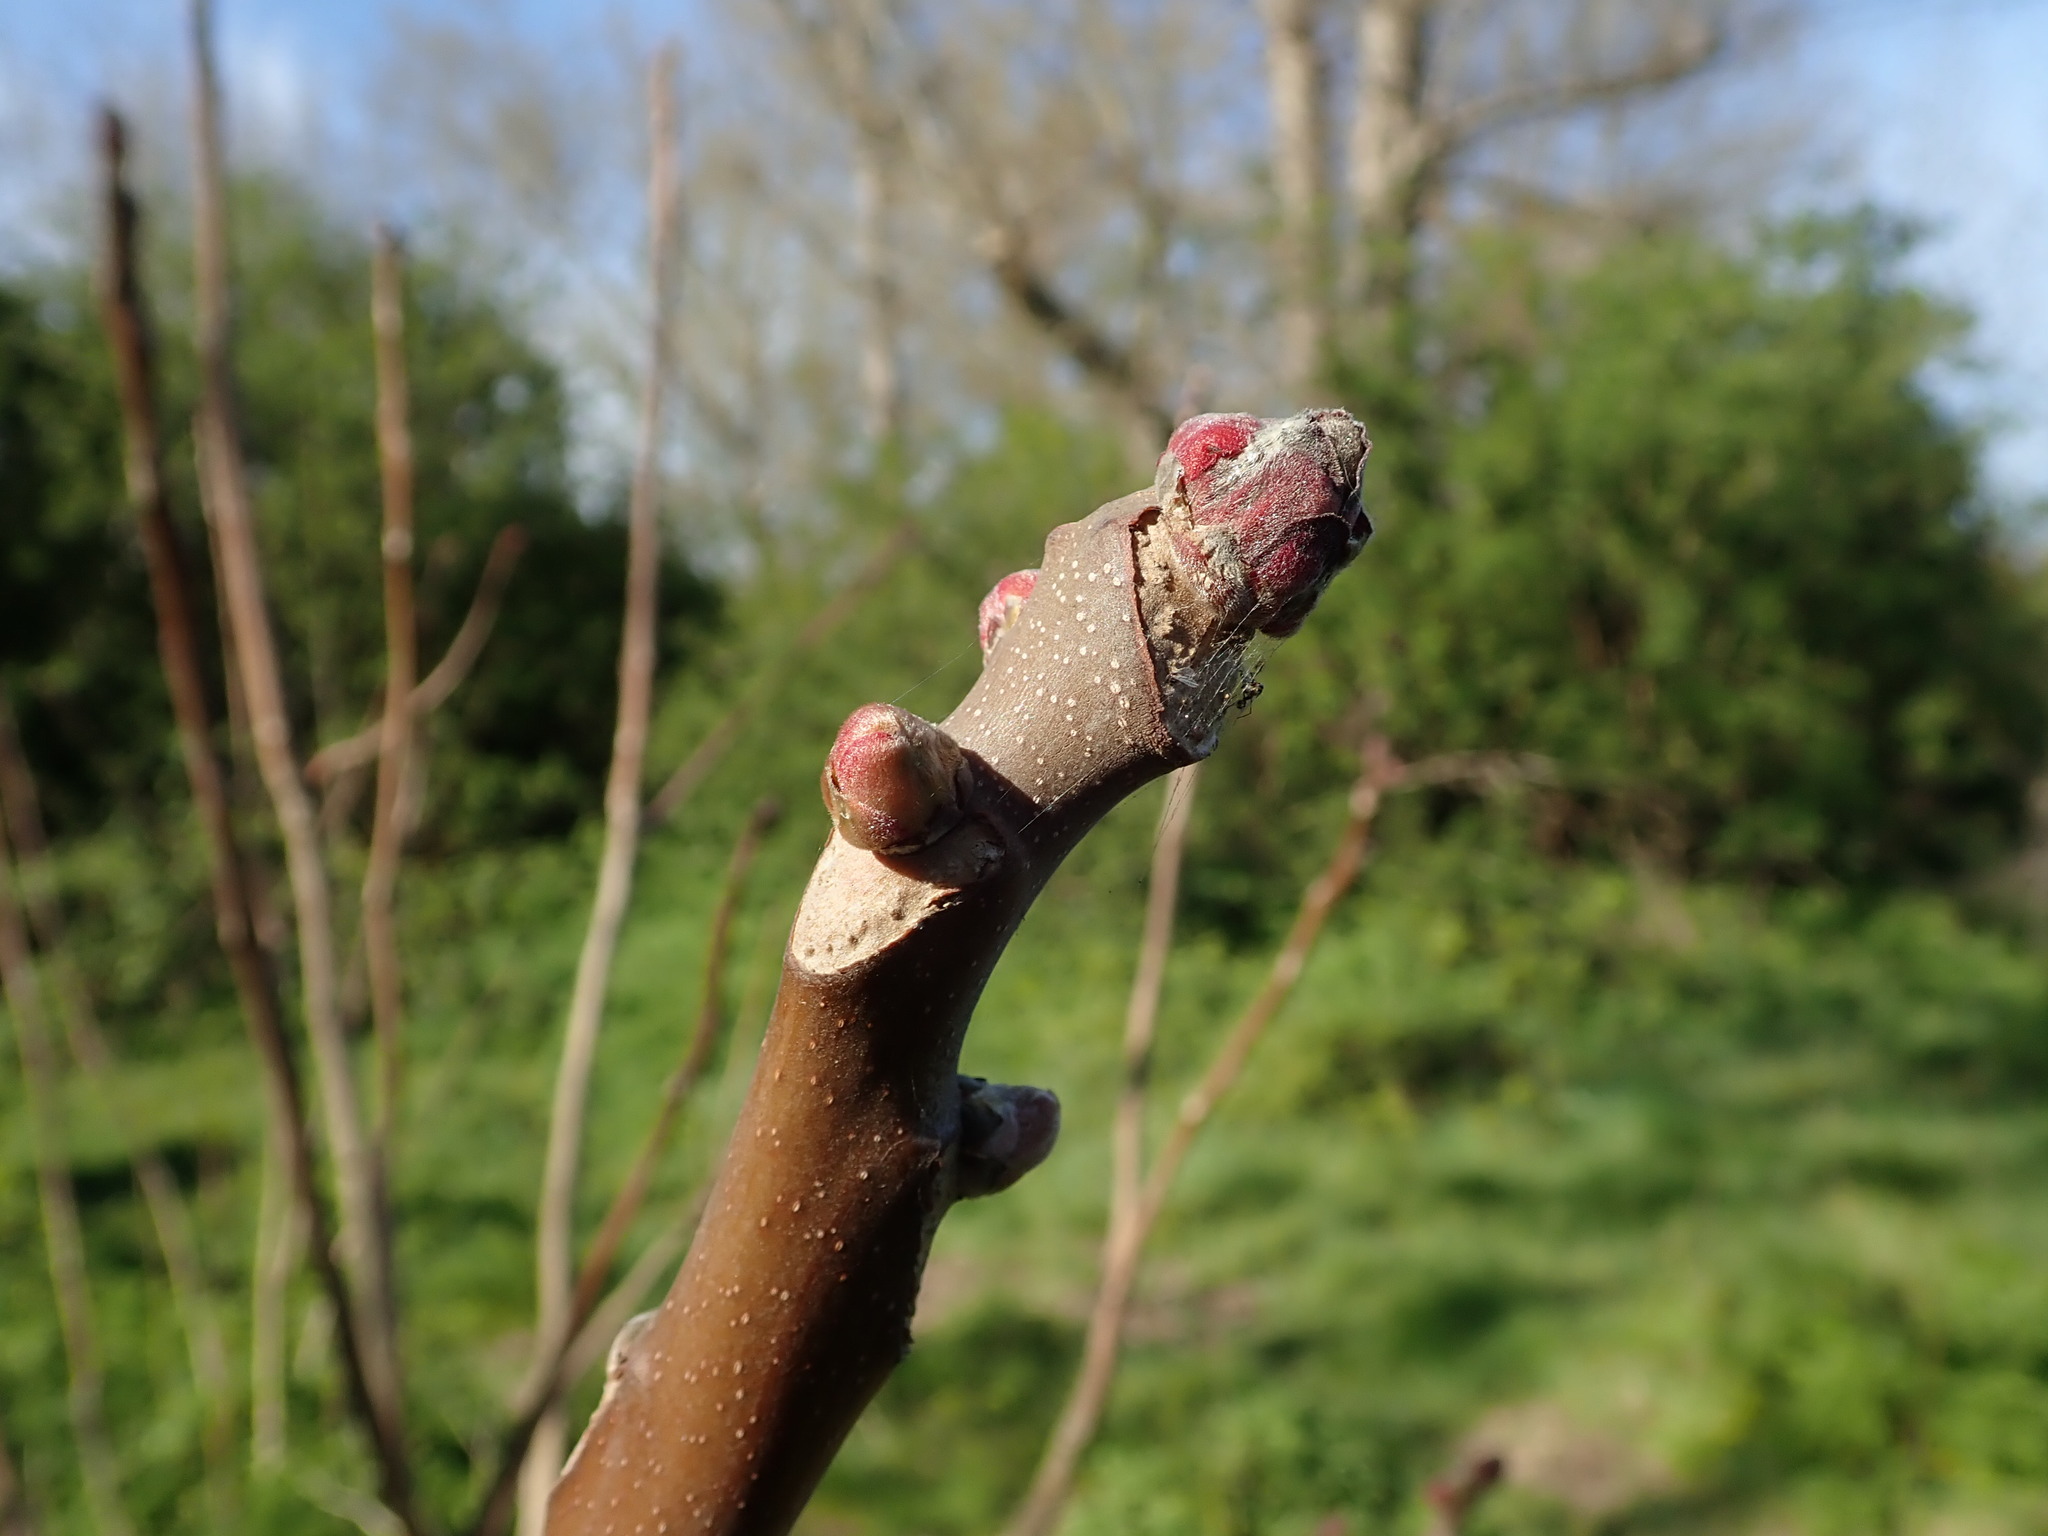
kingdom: Plantae
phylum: Tracheophyta
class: Magnoliopsida
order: Sapindales
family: Simaroubaceae
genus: Ailanthus
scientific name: Ailanthus altissima
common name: Tree-of-heaven
